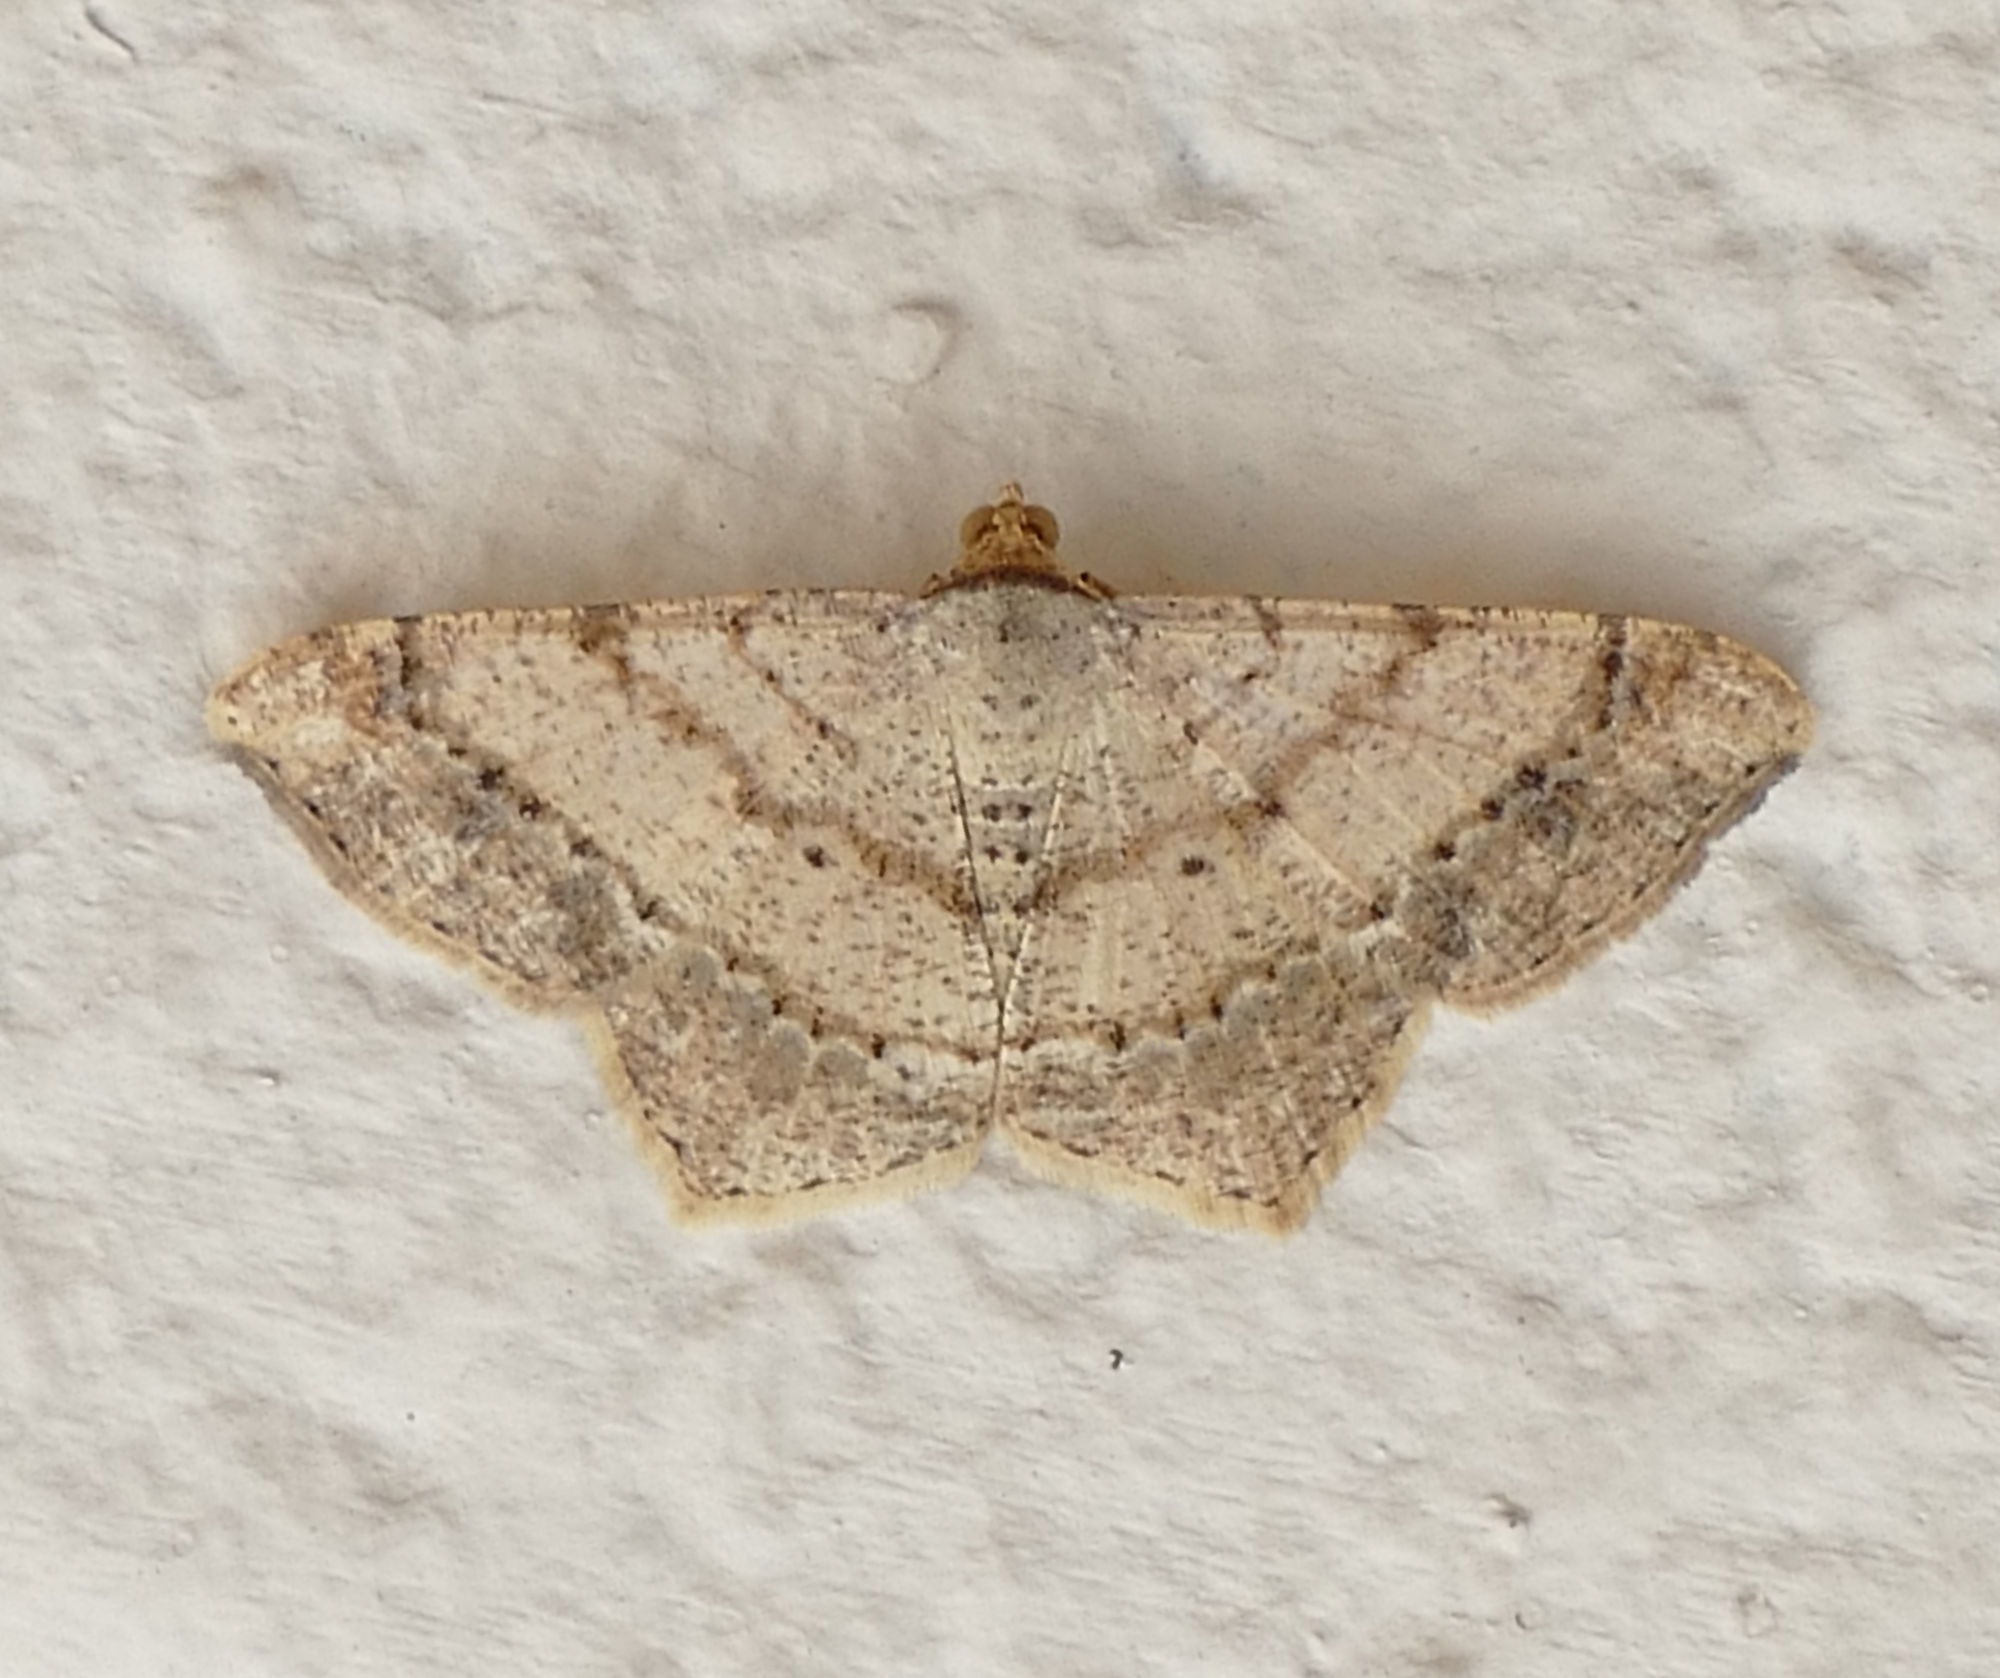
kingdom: Animalia
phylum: Arthropoda
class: Insecta
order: Lepidoptera
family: Geometridae
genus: Macaria
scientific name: Macaria abydata
